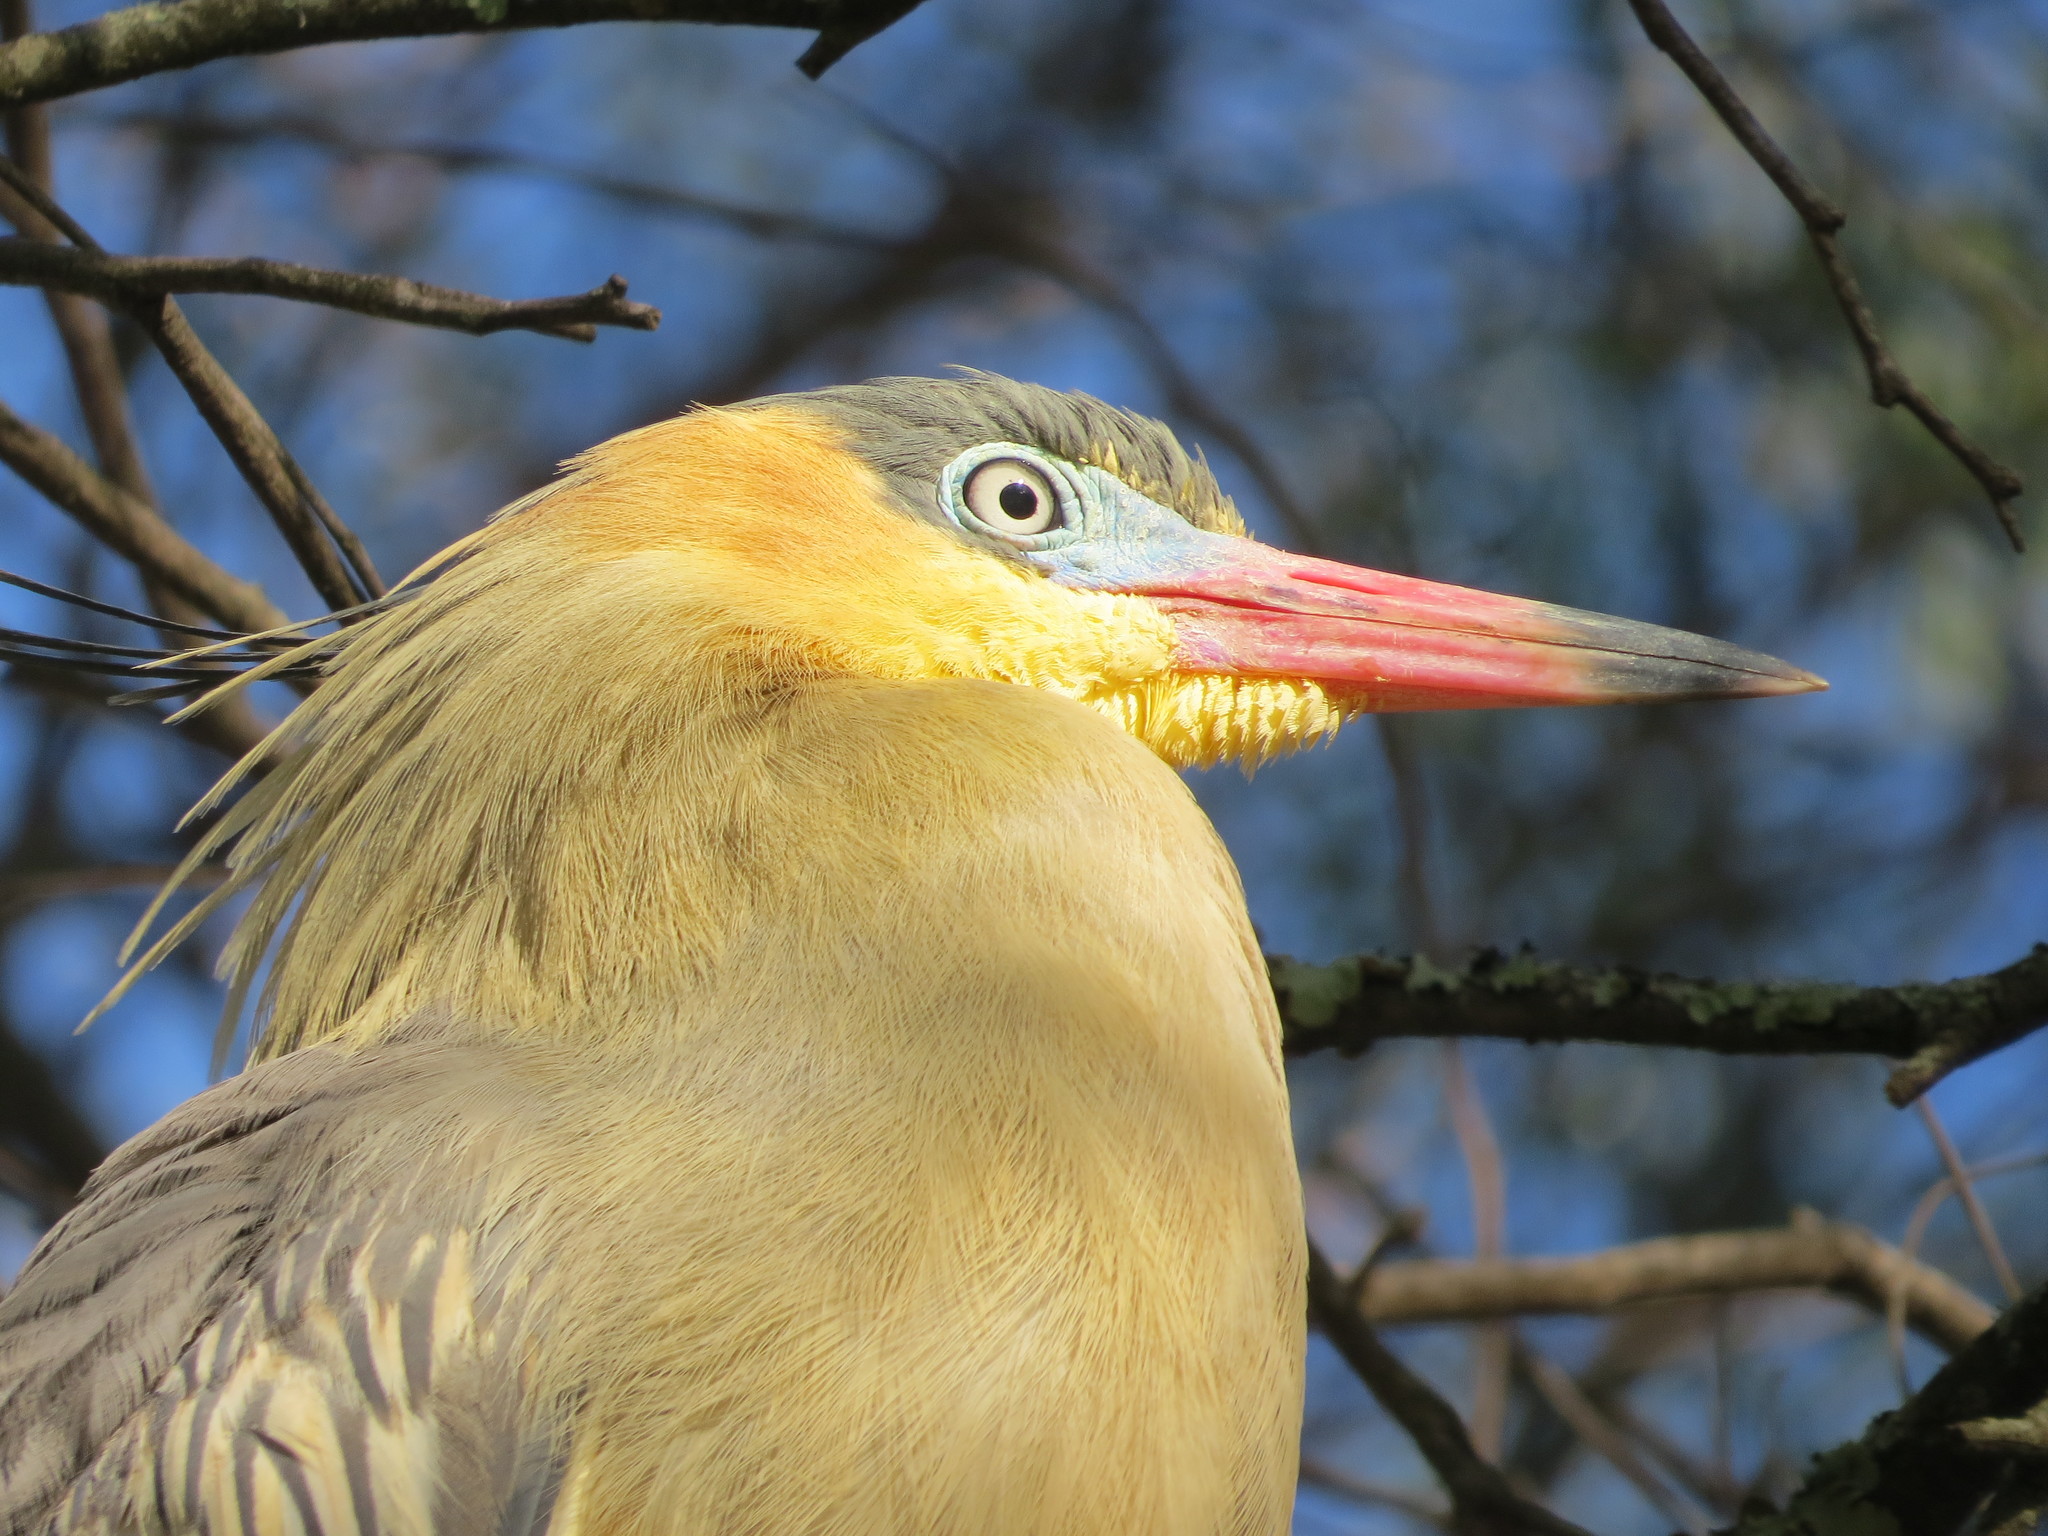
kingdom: Animalia
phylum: Chordata
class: Aves
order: Pelecaniformes
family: Ardeidae
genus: Syrigma
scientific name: Syrigma sibilatrix
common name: Whistling heron
